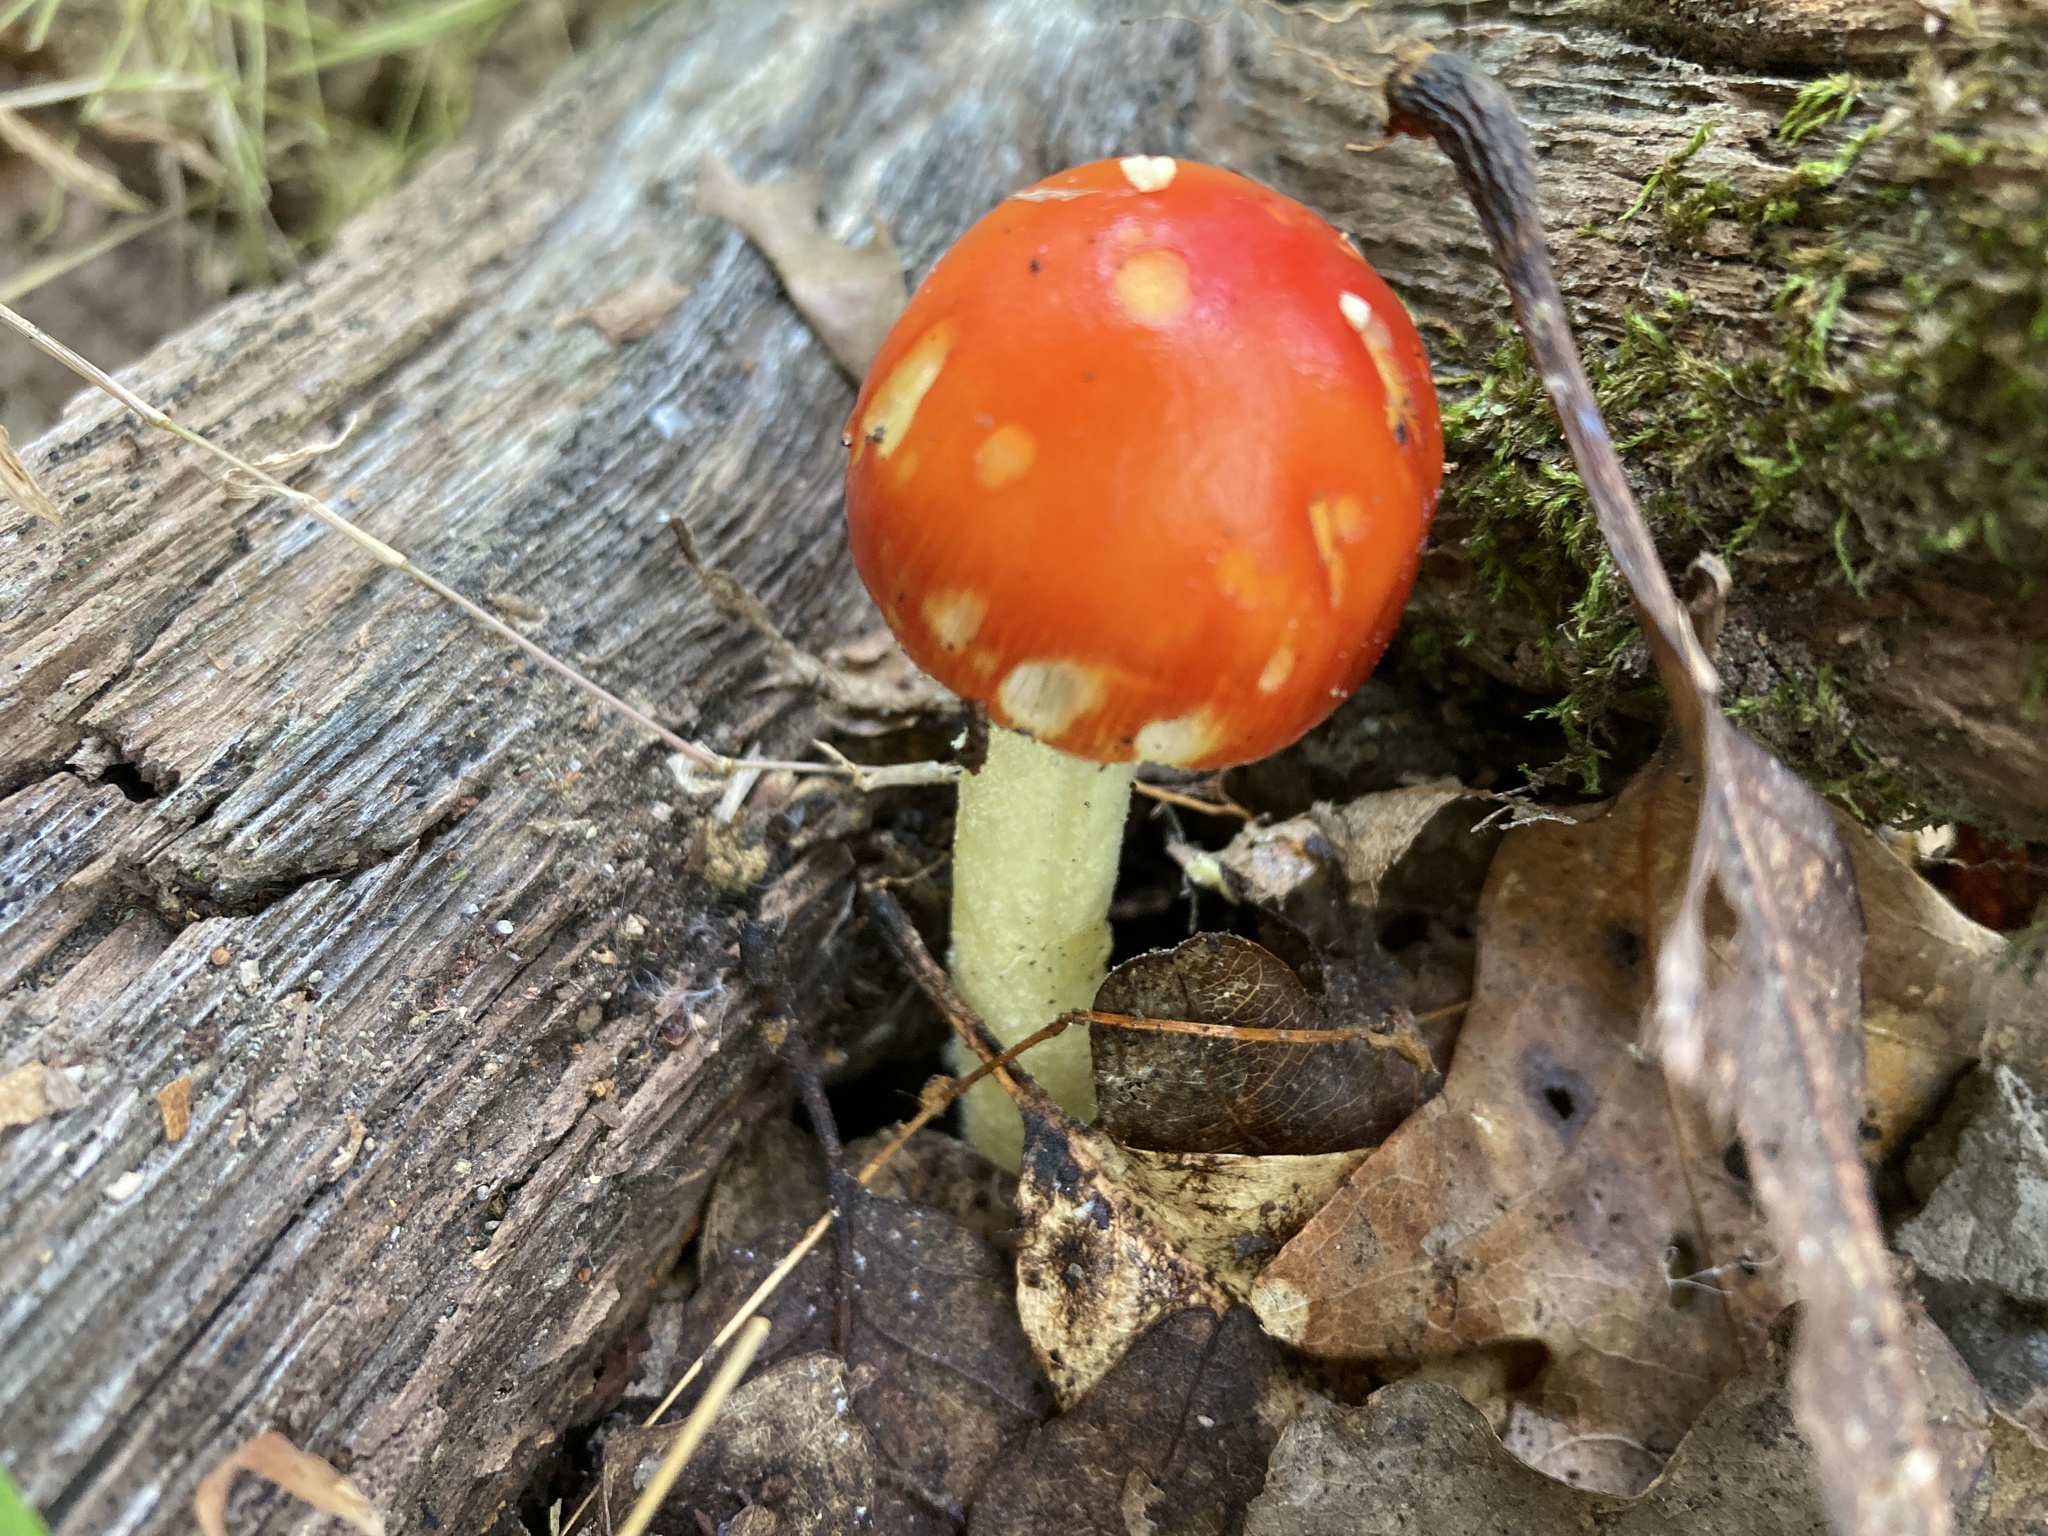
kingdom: Fungi
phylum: Basidiomycota
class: Agaricomycetes
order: Agaricales
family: Amanitaceae
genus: Amanita
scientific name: Amanita parcivolvata
